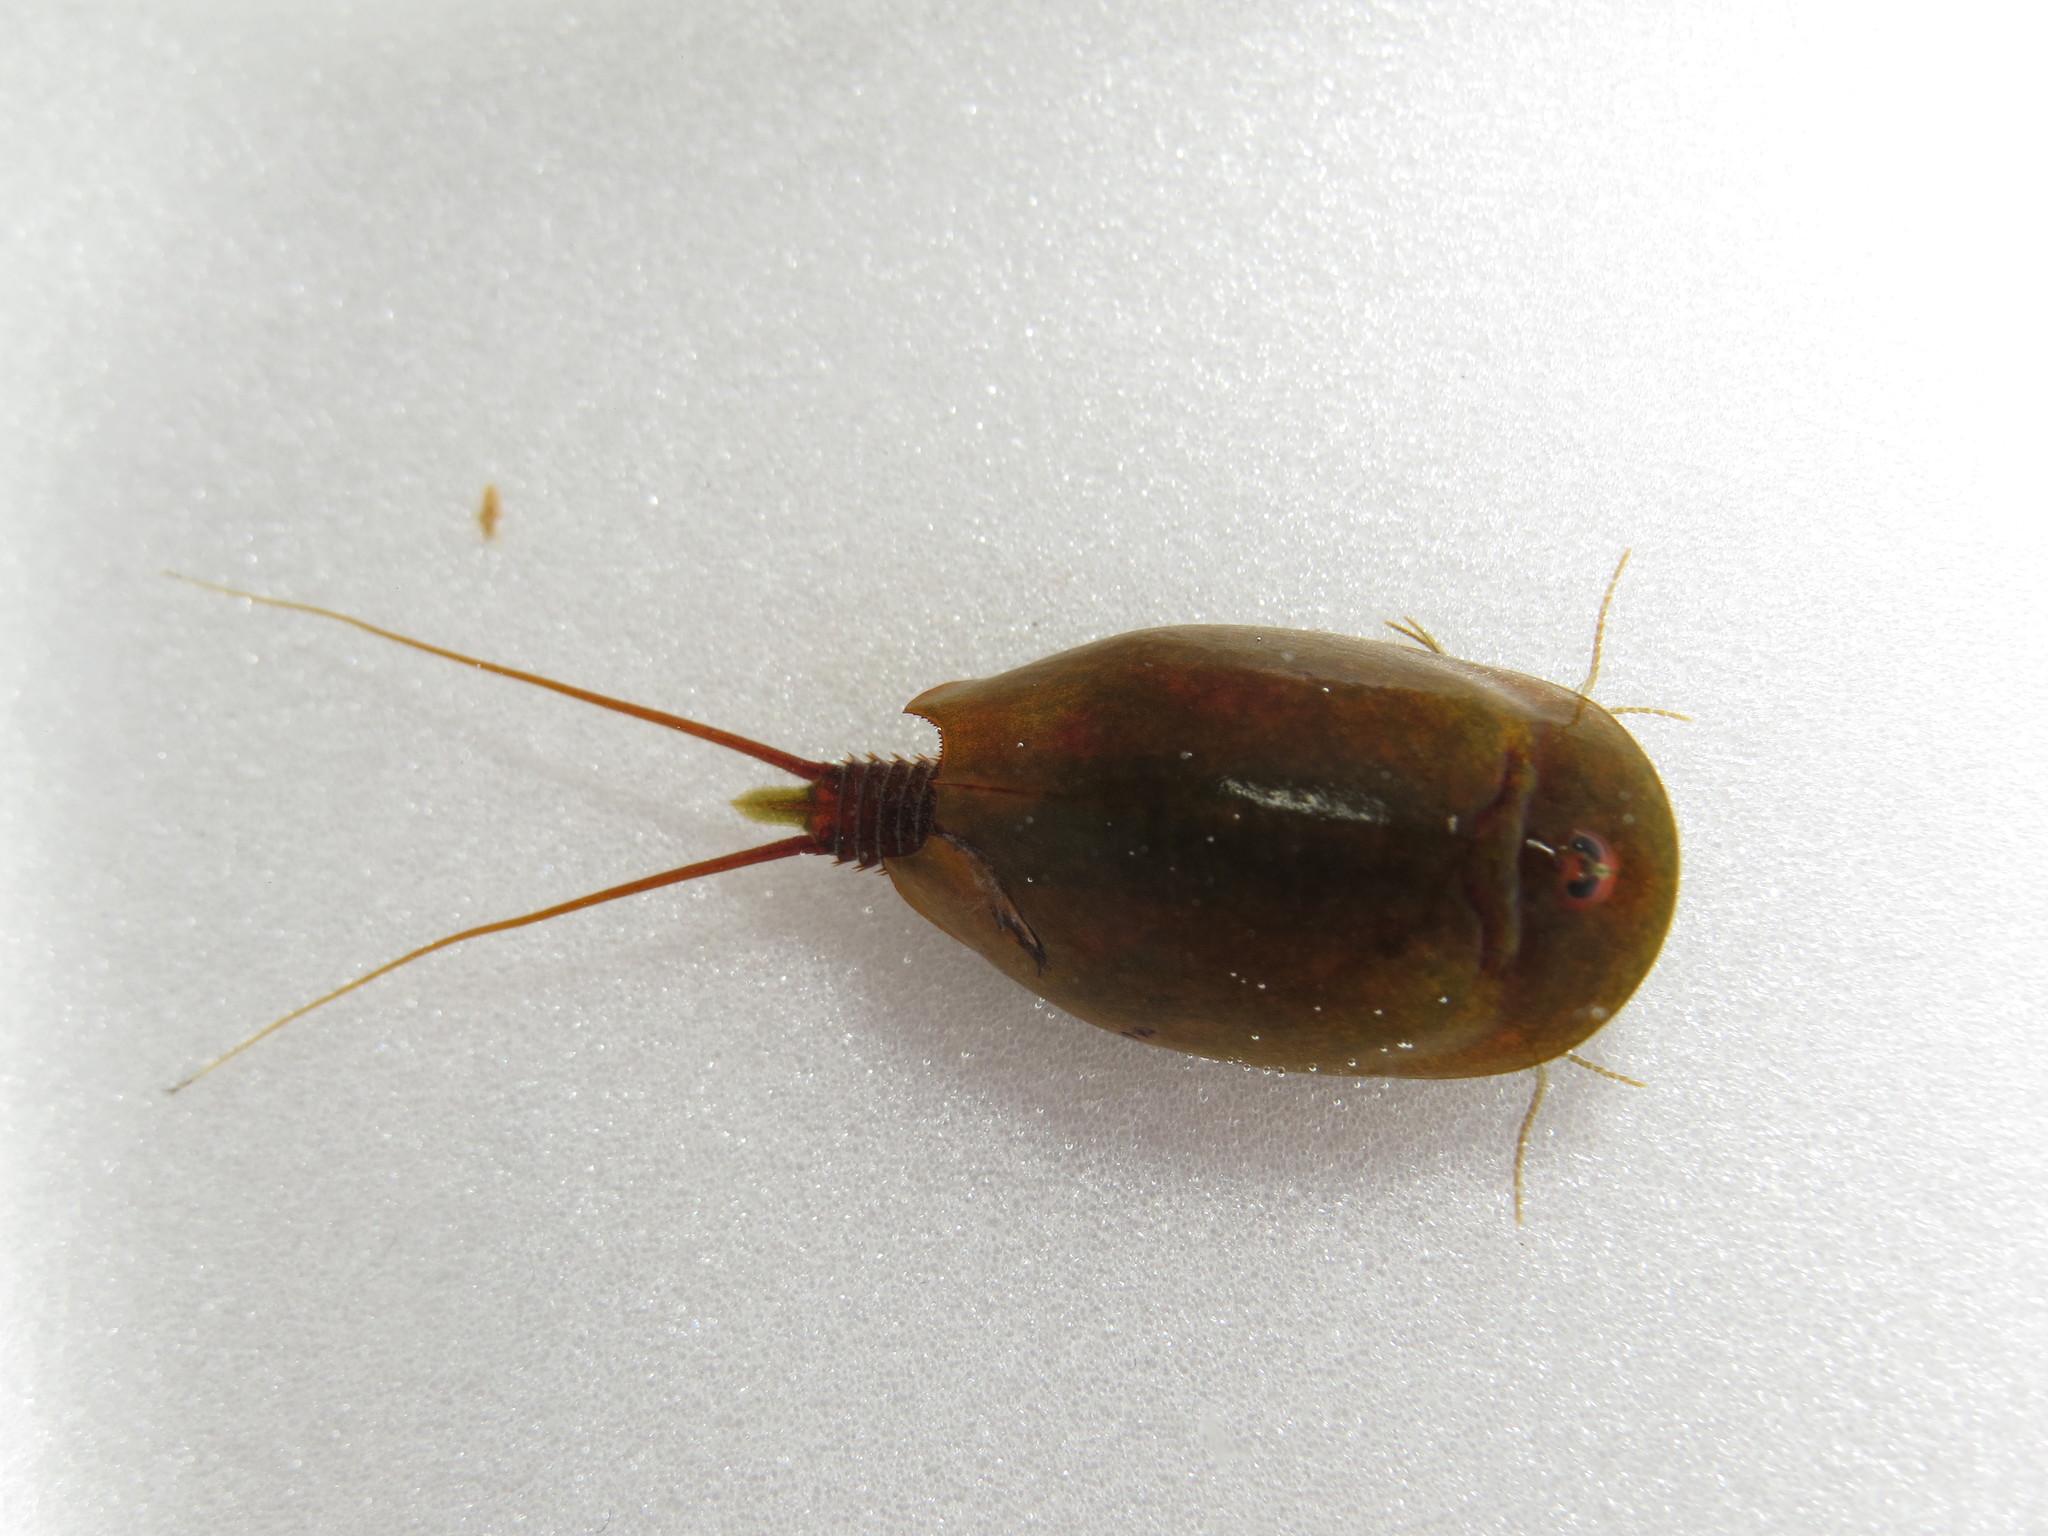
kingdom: Animalia
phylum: Arthropoda
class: Branchiopoda
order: Notostraca
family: Triopsidae
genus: Lepidurus
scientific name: Lepidurus apus
